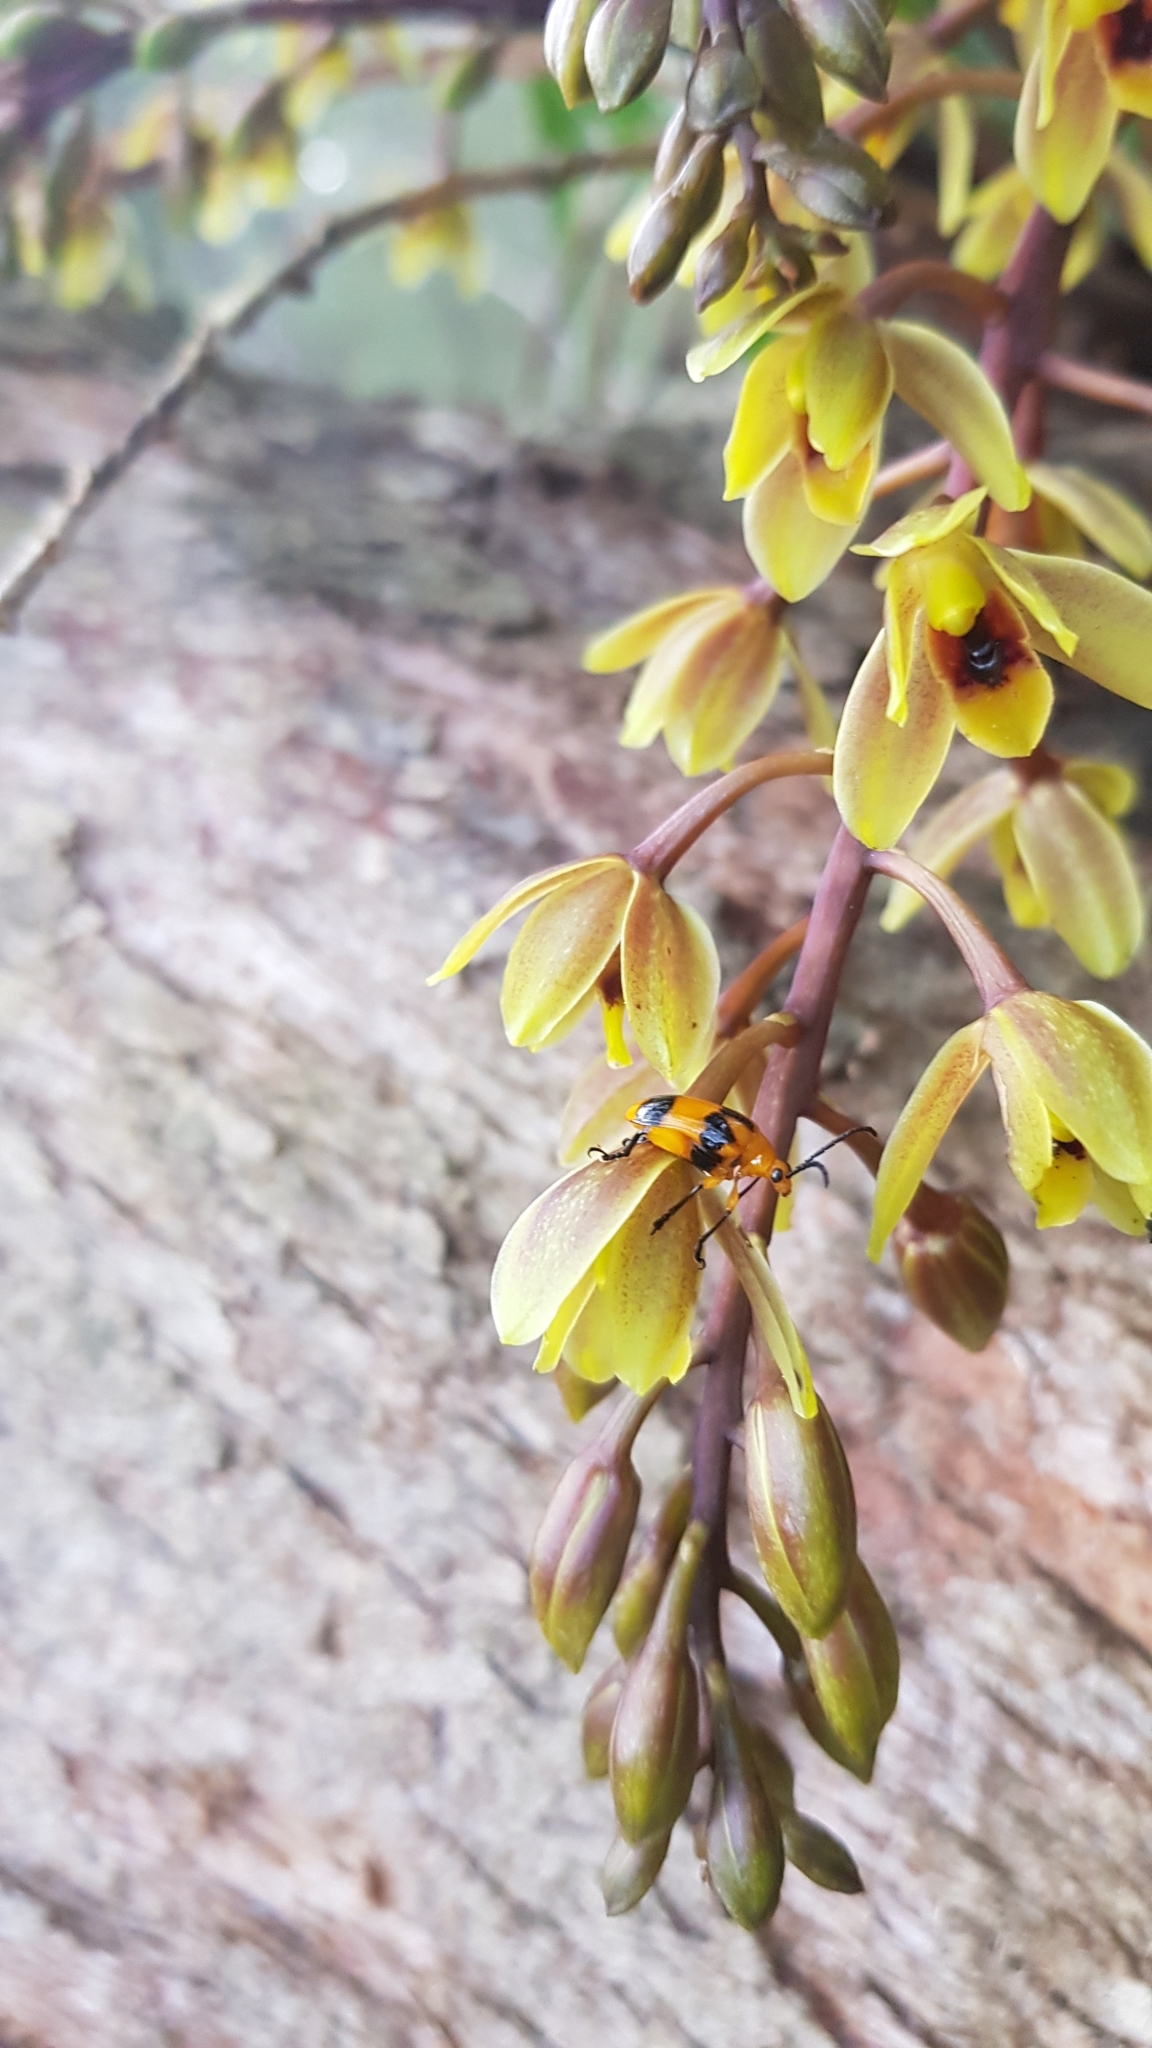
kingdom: Animalia
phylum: Arthropoda
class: Insecta
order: Coleoptera
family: Chrysomelidae
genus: Stethopachys
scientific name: Stethopachys formosa
